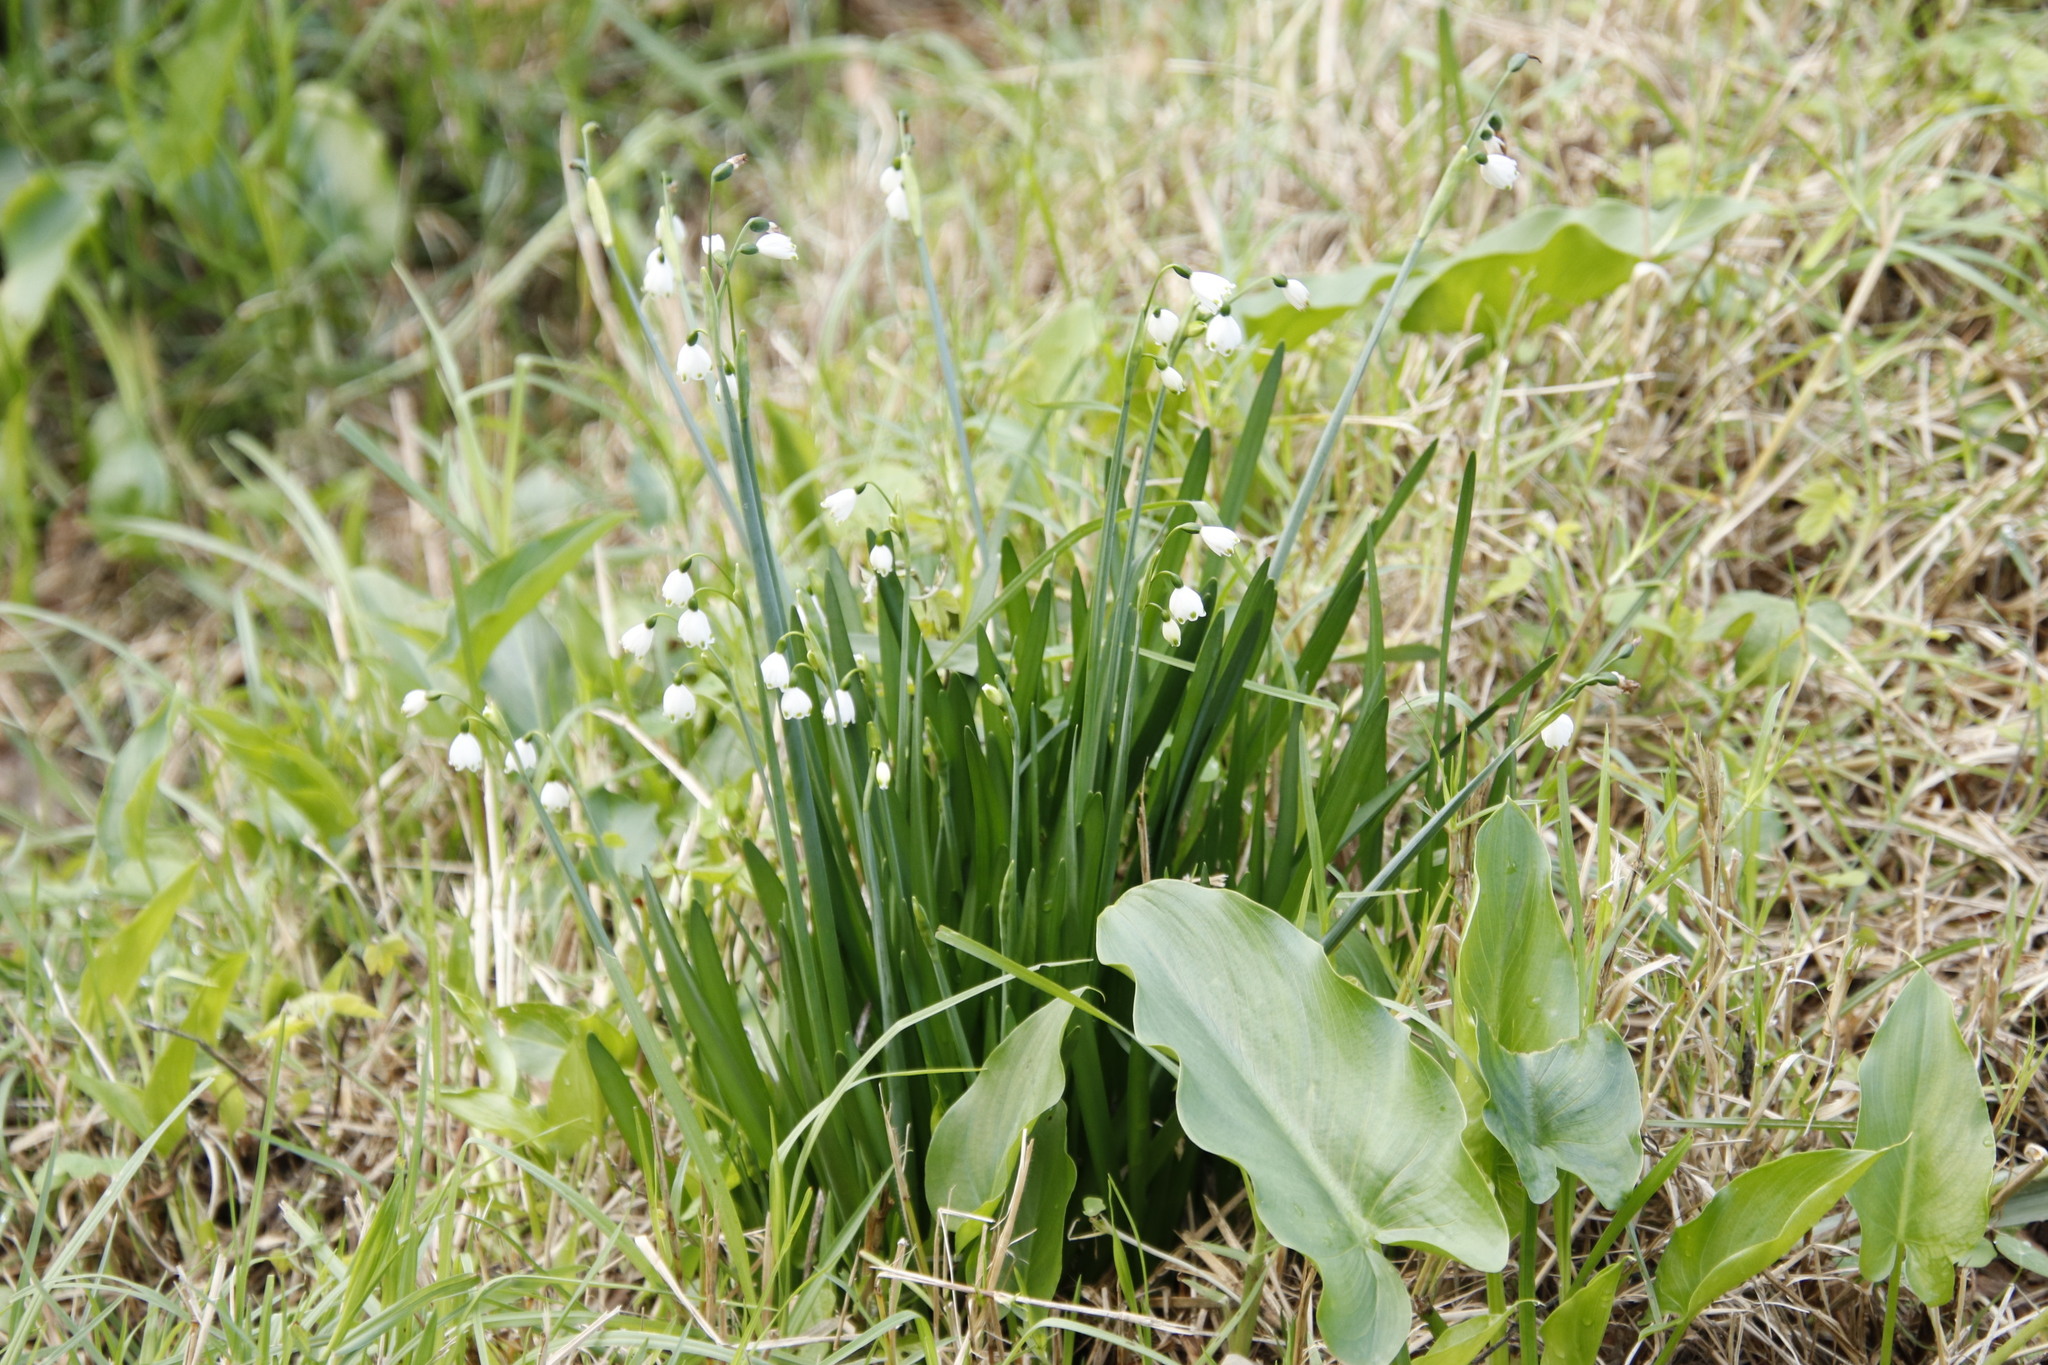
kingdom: Plantae
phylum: Tracheophyta
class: Liliopsida
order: Asparagales
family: Amaryllidaceae
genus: Leucojum
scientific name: Leucojum aestivum
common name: Summer snowflake
